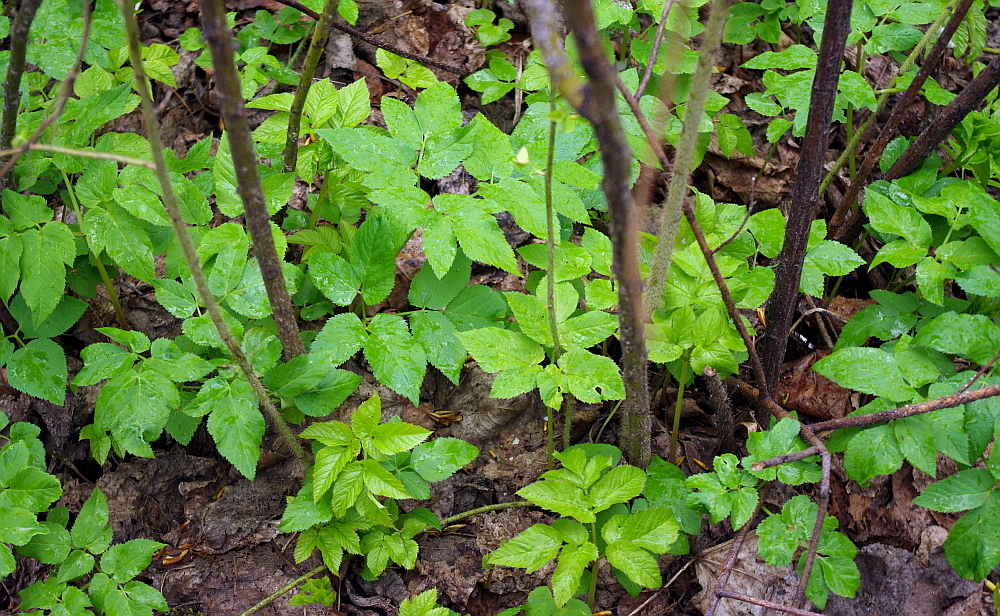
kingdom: Plantae
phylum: Tracheophyta
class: Magnoliopsida
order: Apiales
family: Apiaceae
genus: Aegopodium
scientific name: Aegopodium podagraria
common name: Ground-elder
